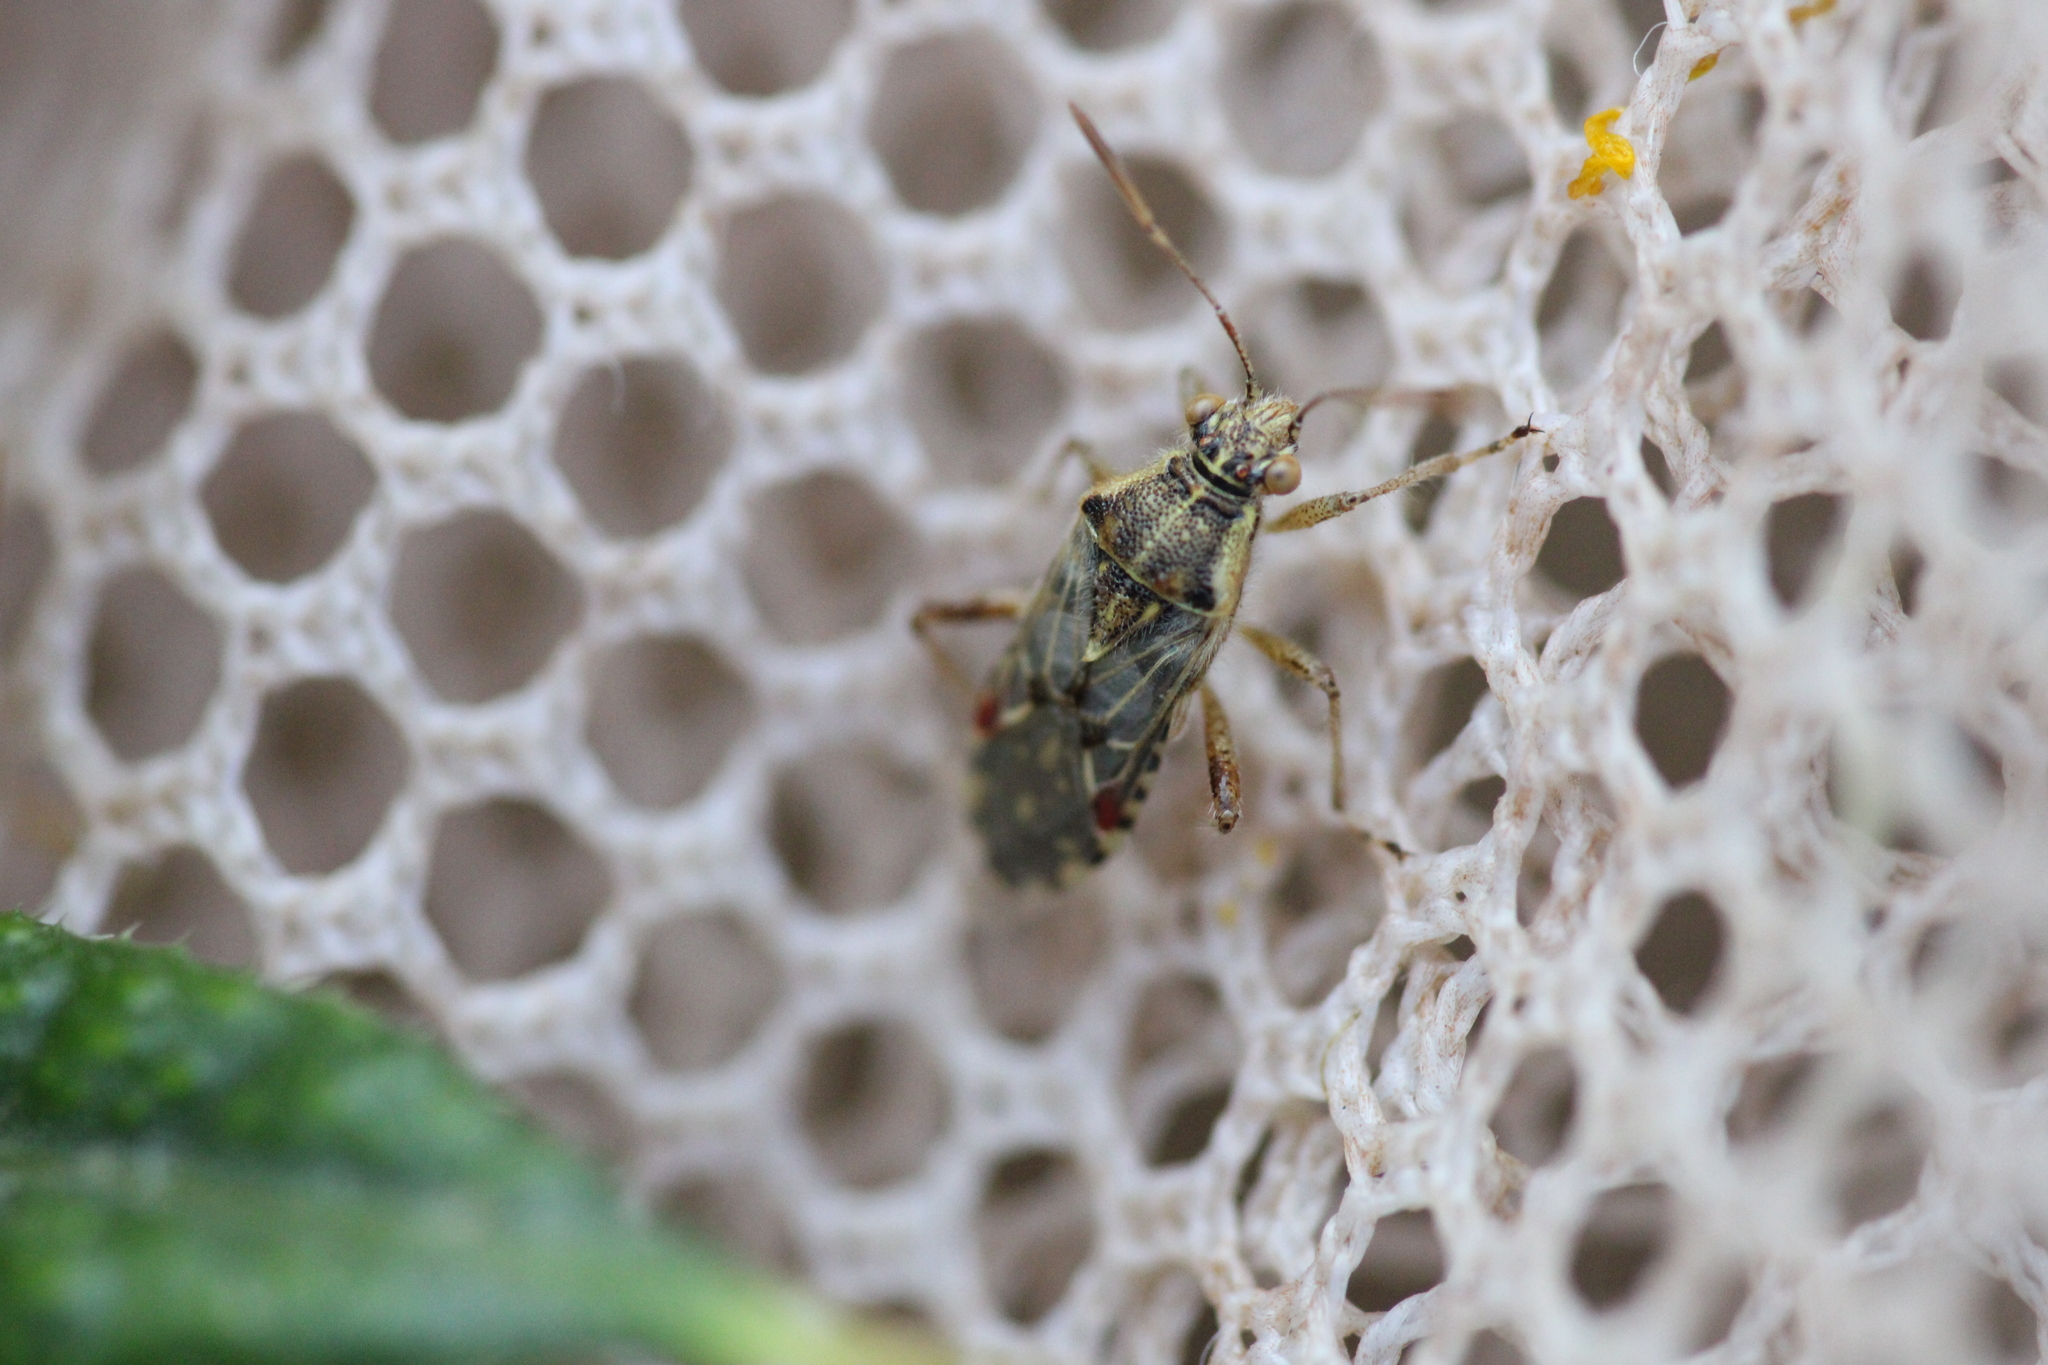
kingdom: Animalia
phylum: Arthropoda
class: Insecta
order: Hemiptera
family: Rhopalidae
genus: Liorhyssus
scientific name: Liorhyssus hyalinus
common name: Scentless plant bug
